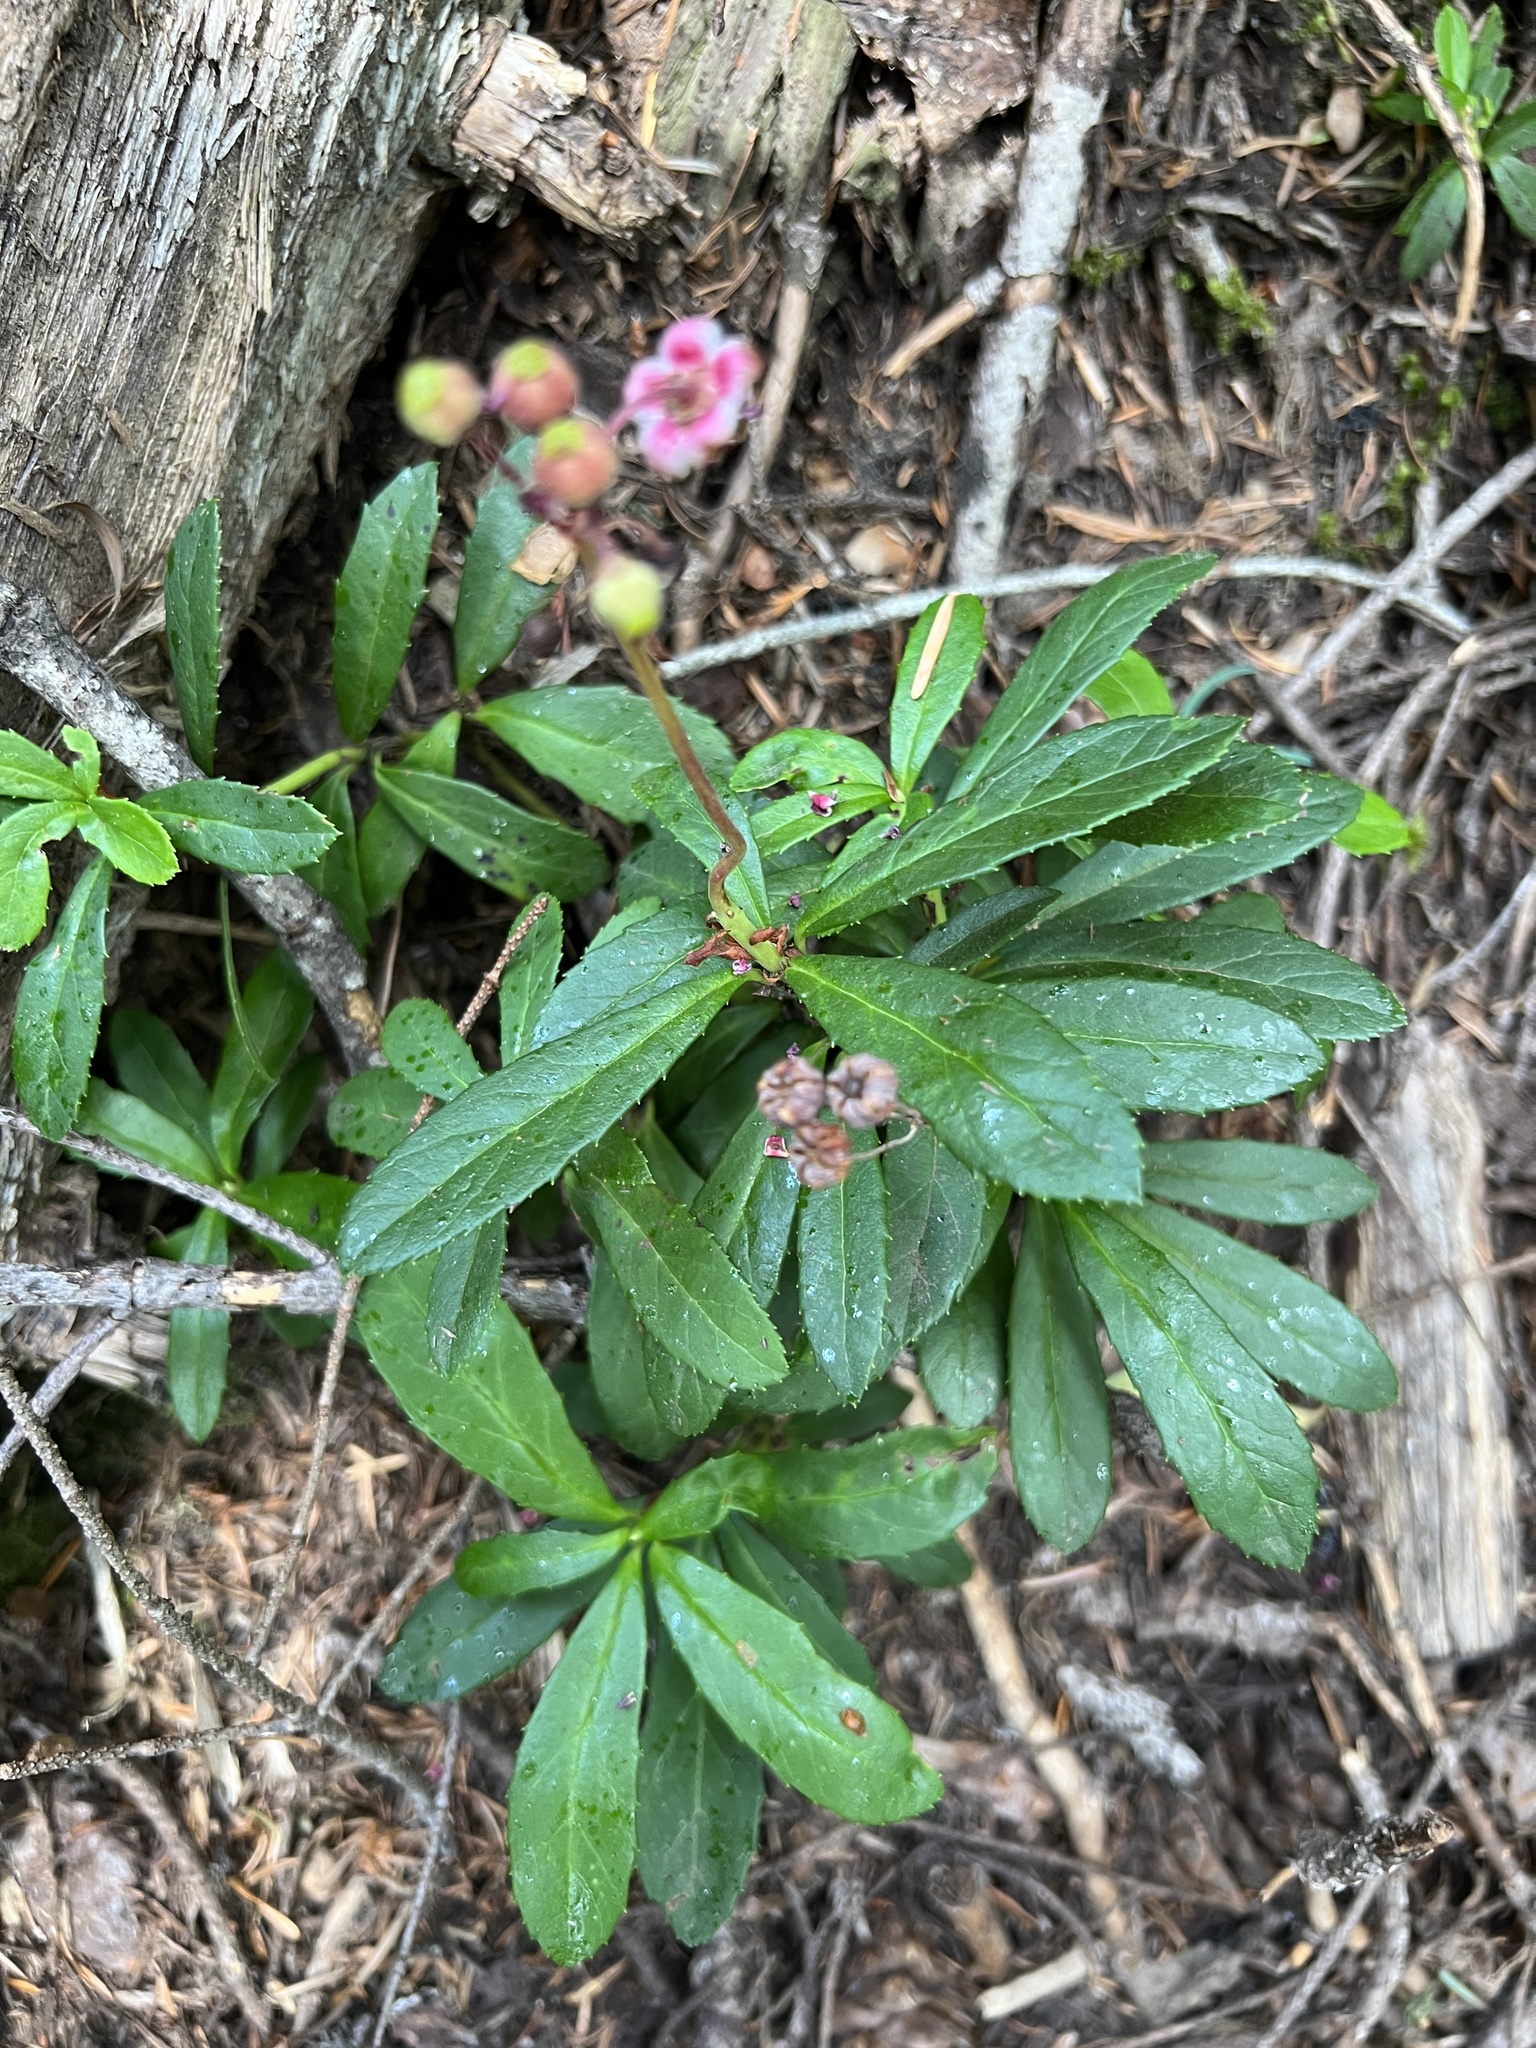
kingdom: Plantae
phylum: Tracheophyta
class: Magnoliopsida
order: Ericales
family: Ericaceae
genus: Chimaphila
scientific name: Chimaphila umbellata
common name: Pipsissewa
